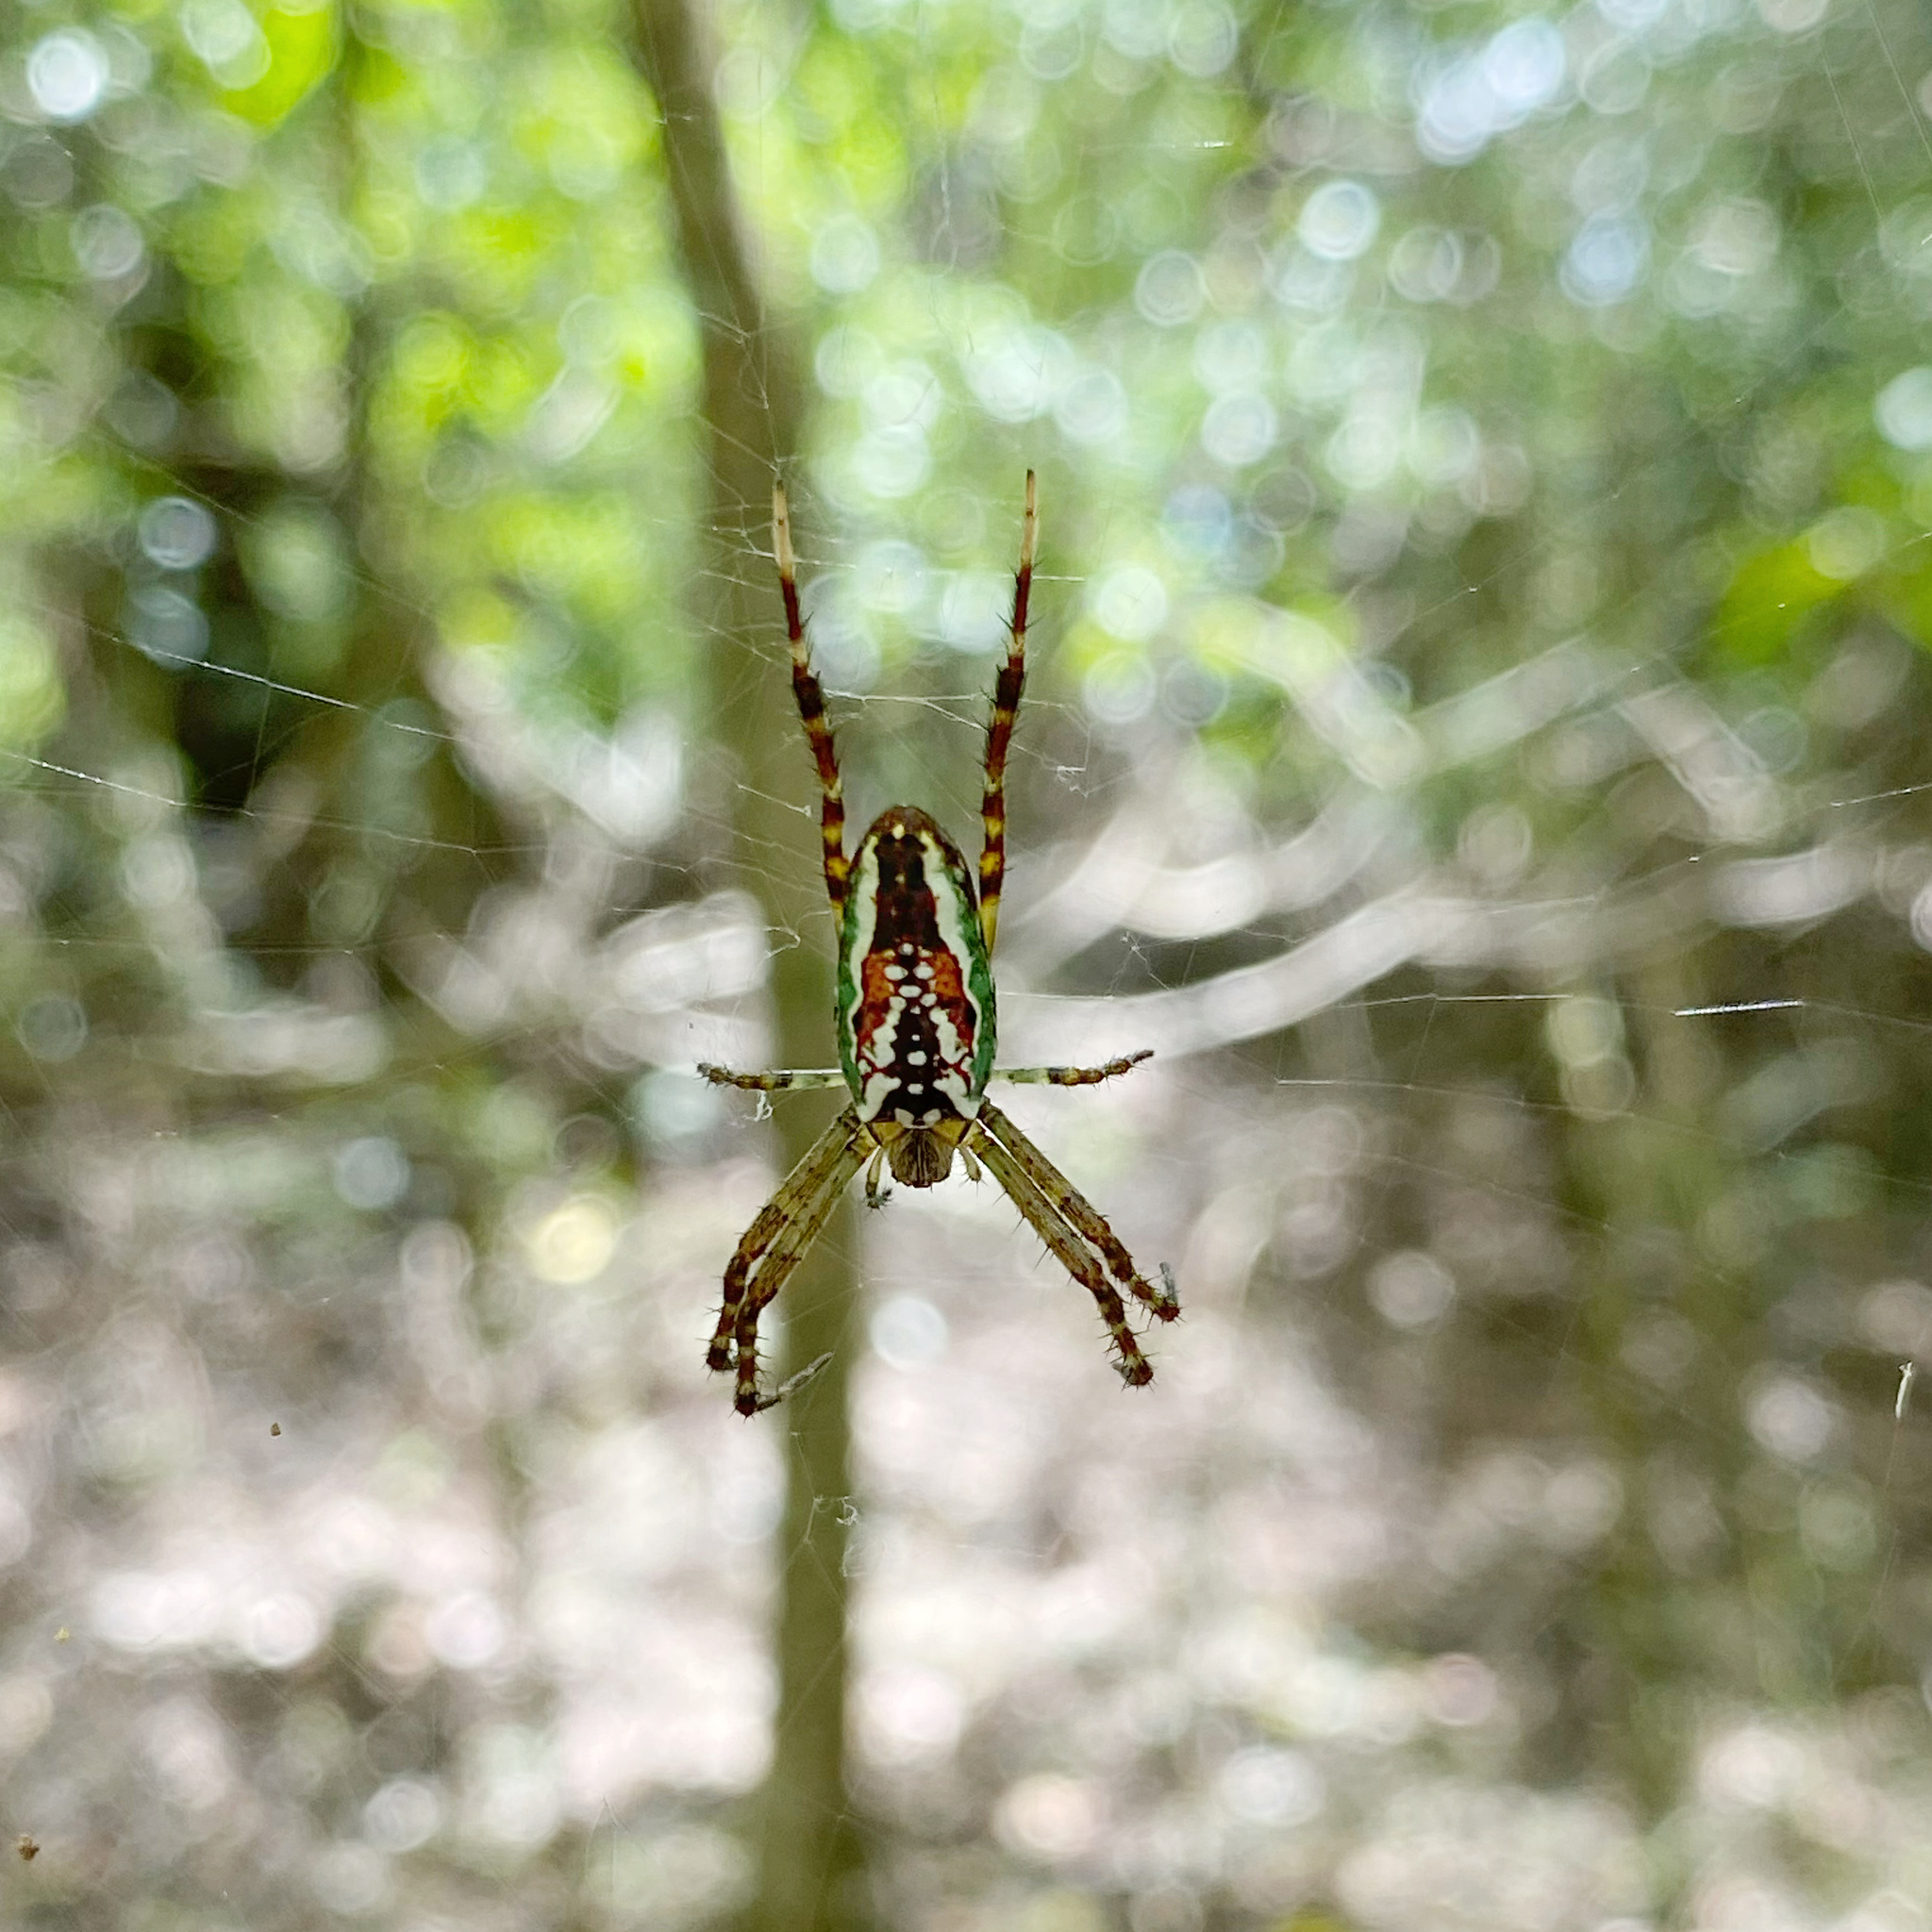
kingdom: Animalia
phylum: Arthropoda
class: Arachnida
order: Araneae
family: Araneidae
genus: Plebs
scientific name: Plebs bradleyi
